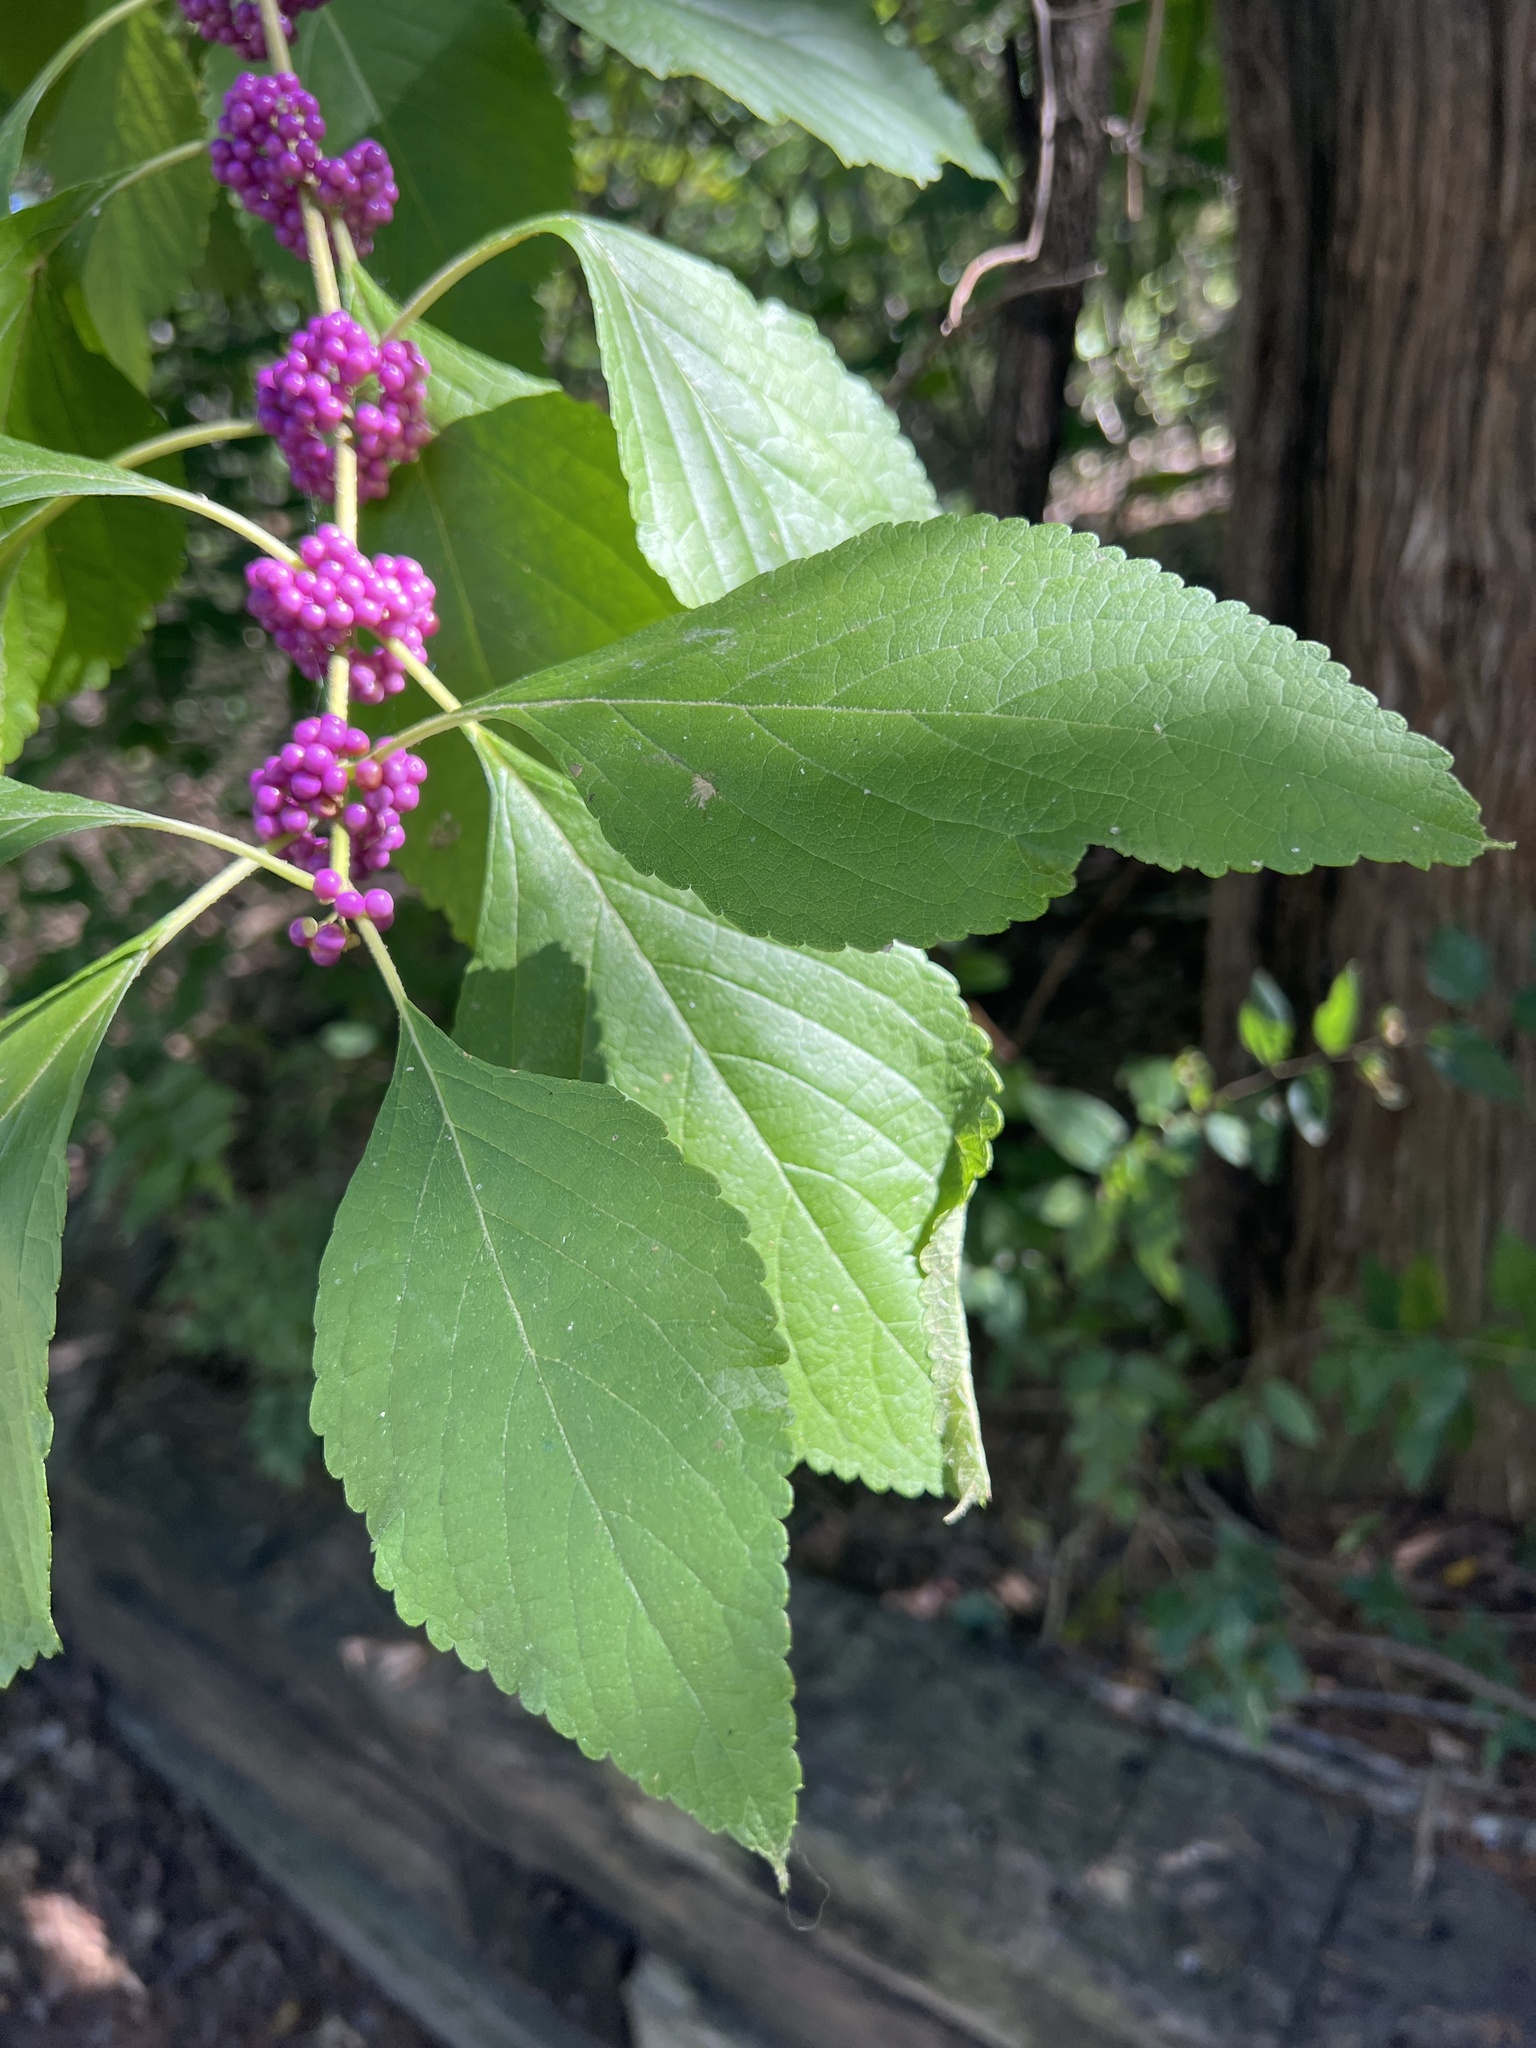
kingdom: Plantae
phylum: Tracheophyta
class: Magnoliopsida
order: Lamiales
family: Lamiaceae
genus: Callicarpa
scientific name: Callicarpa americana
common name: American beautyberry
